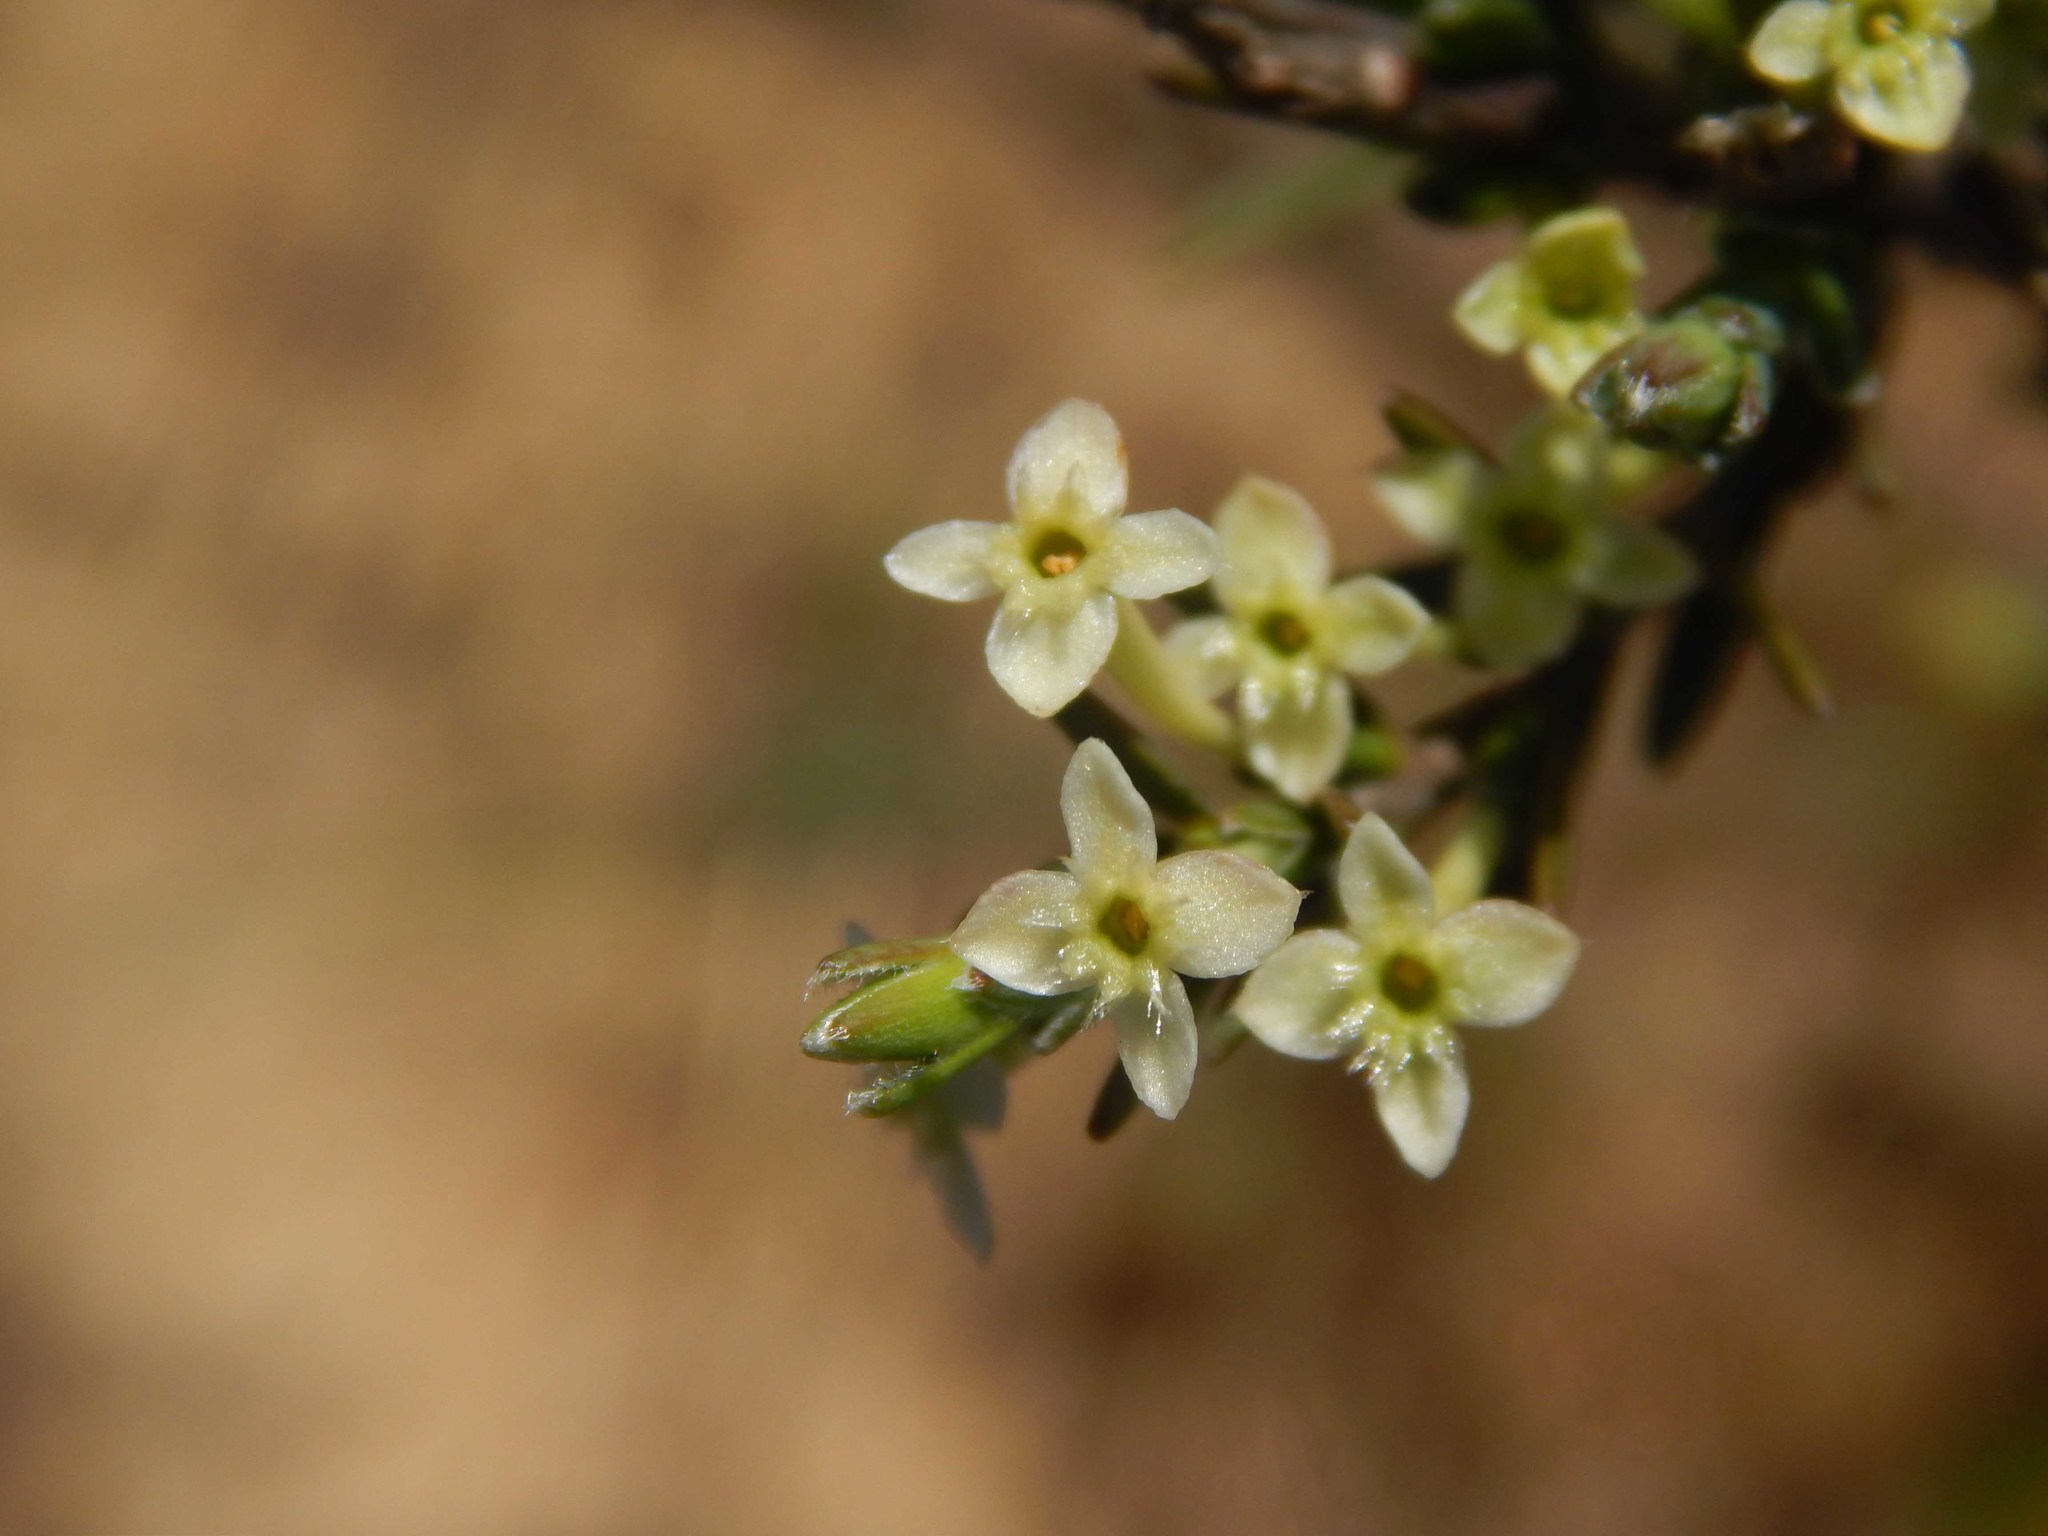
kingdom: Plantae
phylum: Tracheophyta
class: Magnoliopsida
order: Malvales
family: Thymelaeaceae
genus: Struthiola
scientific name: Struthiola ciliata
